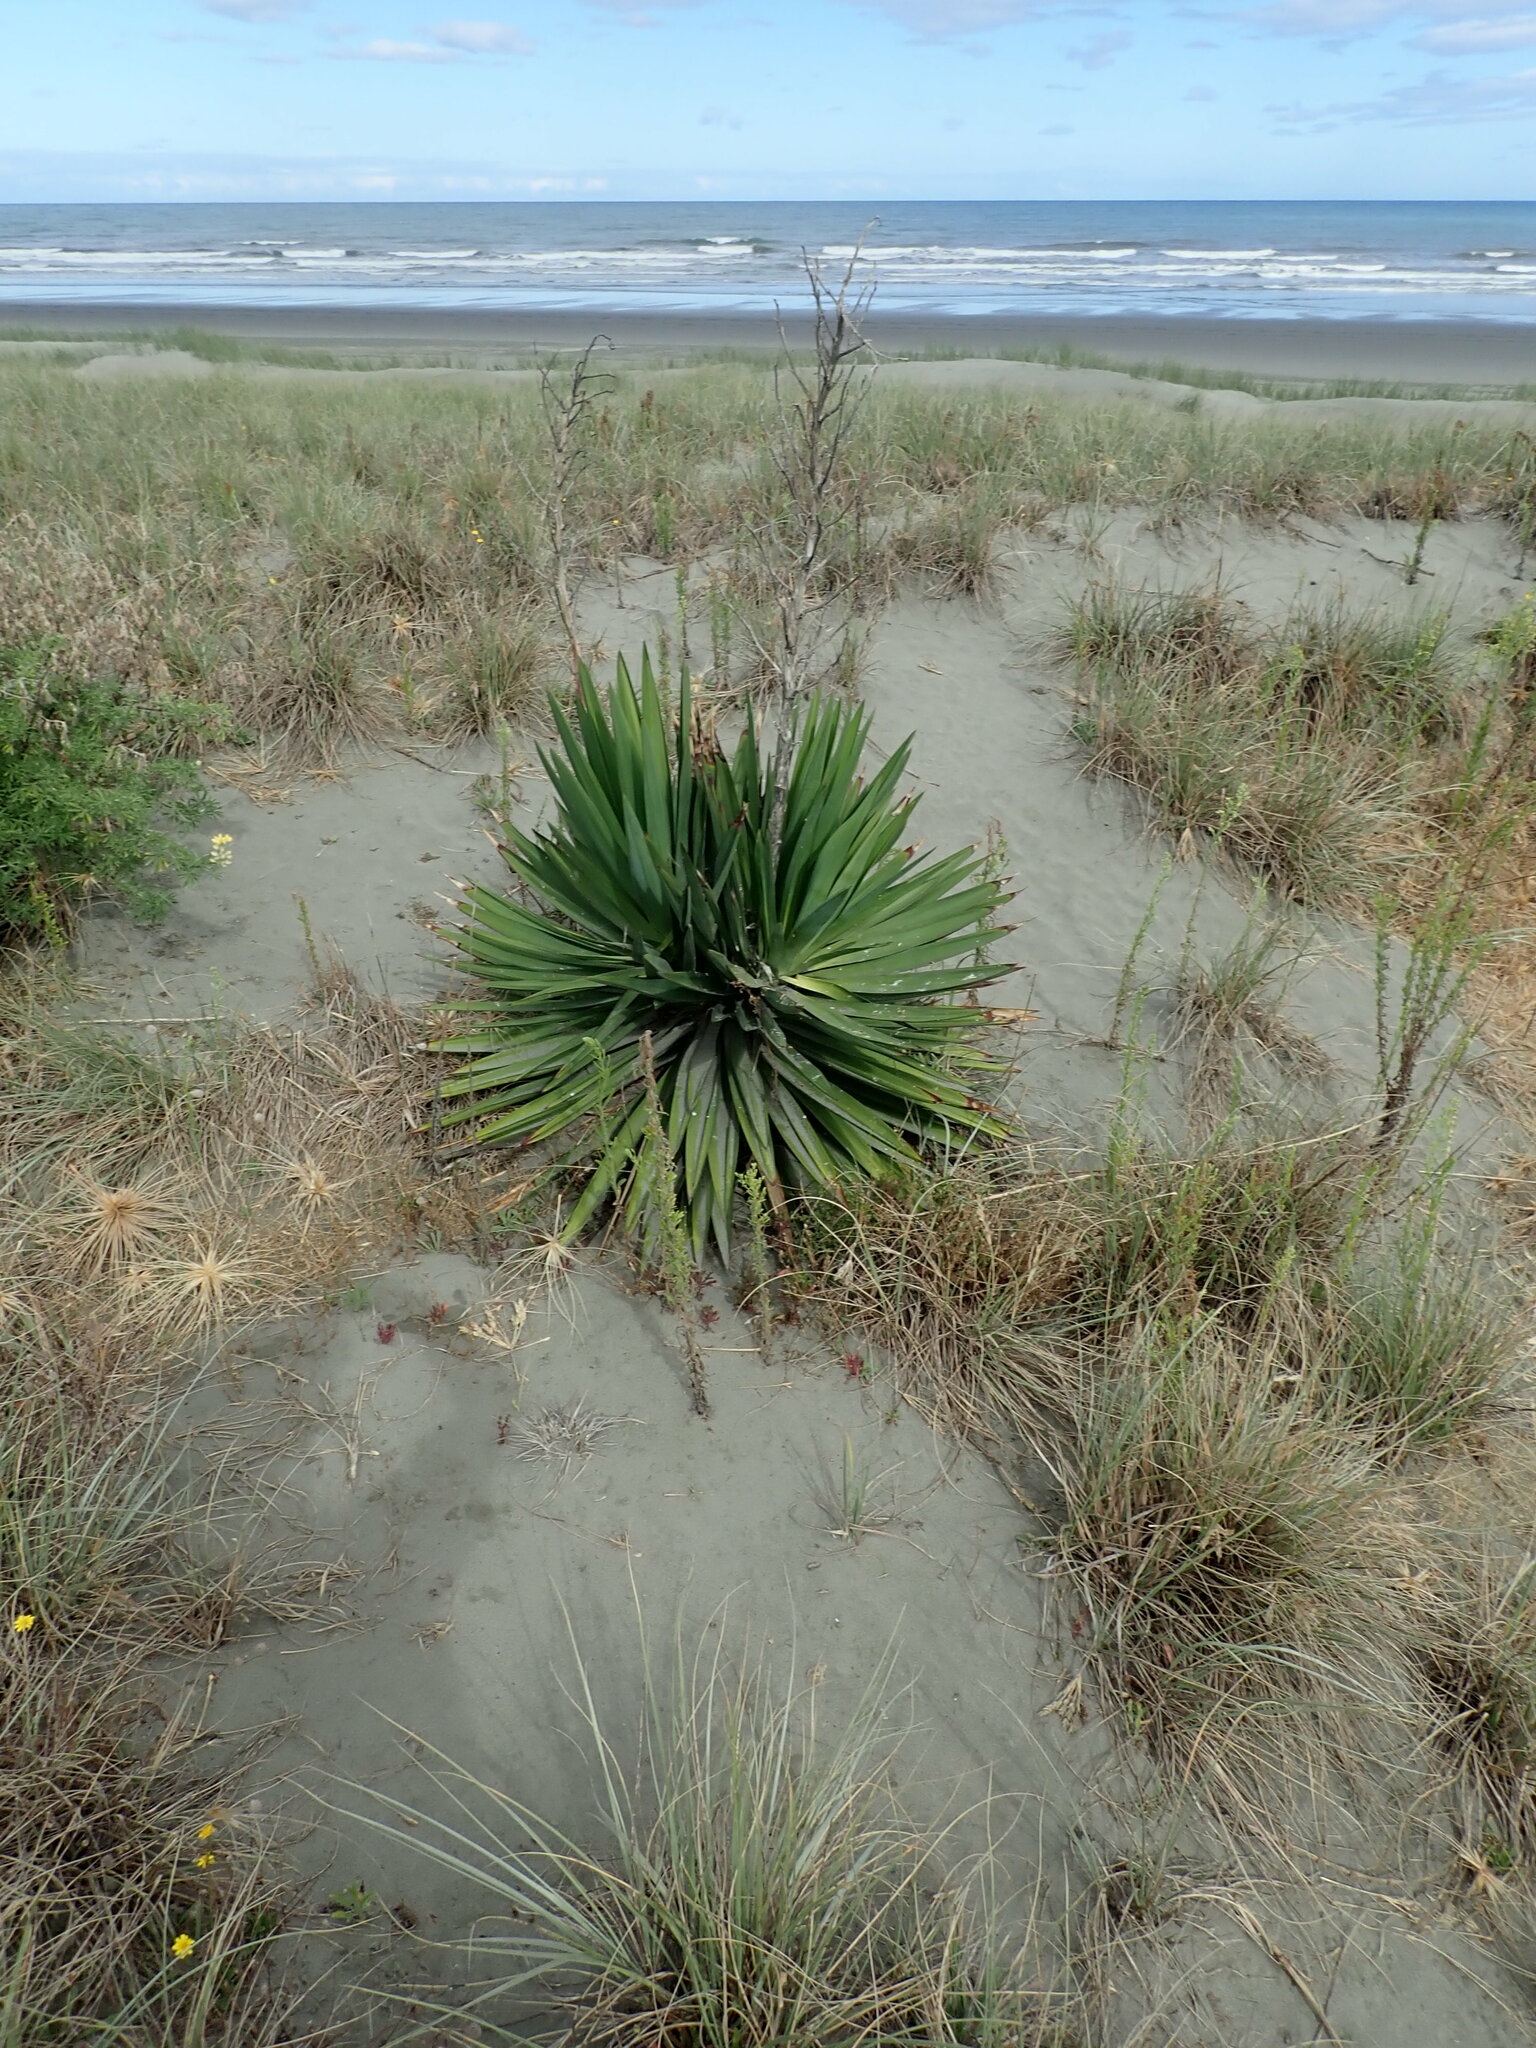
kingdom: Plantae
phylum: Tracheophyta
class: Liliopsida
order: Asparagales
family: Asparagaceae
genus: Yucca
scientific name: Yucca gloriosa
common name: Spanish-dagger
